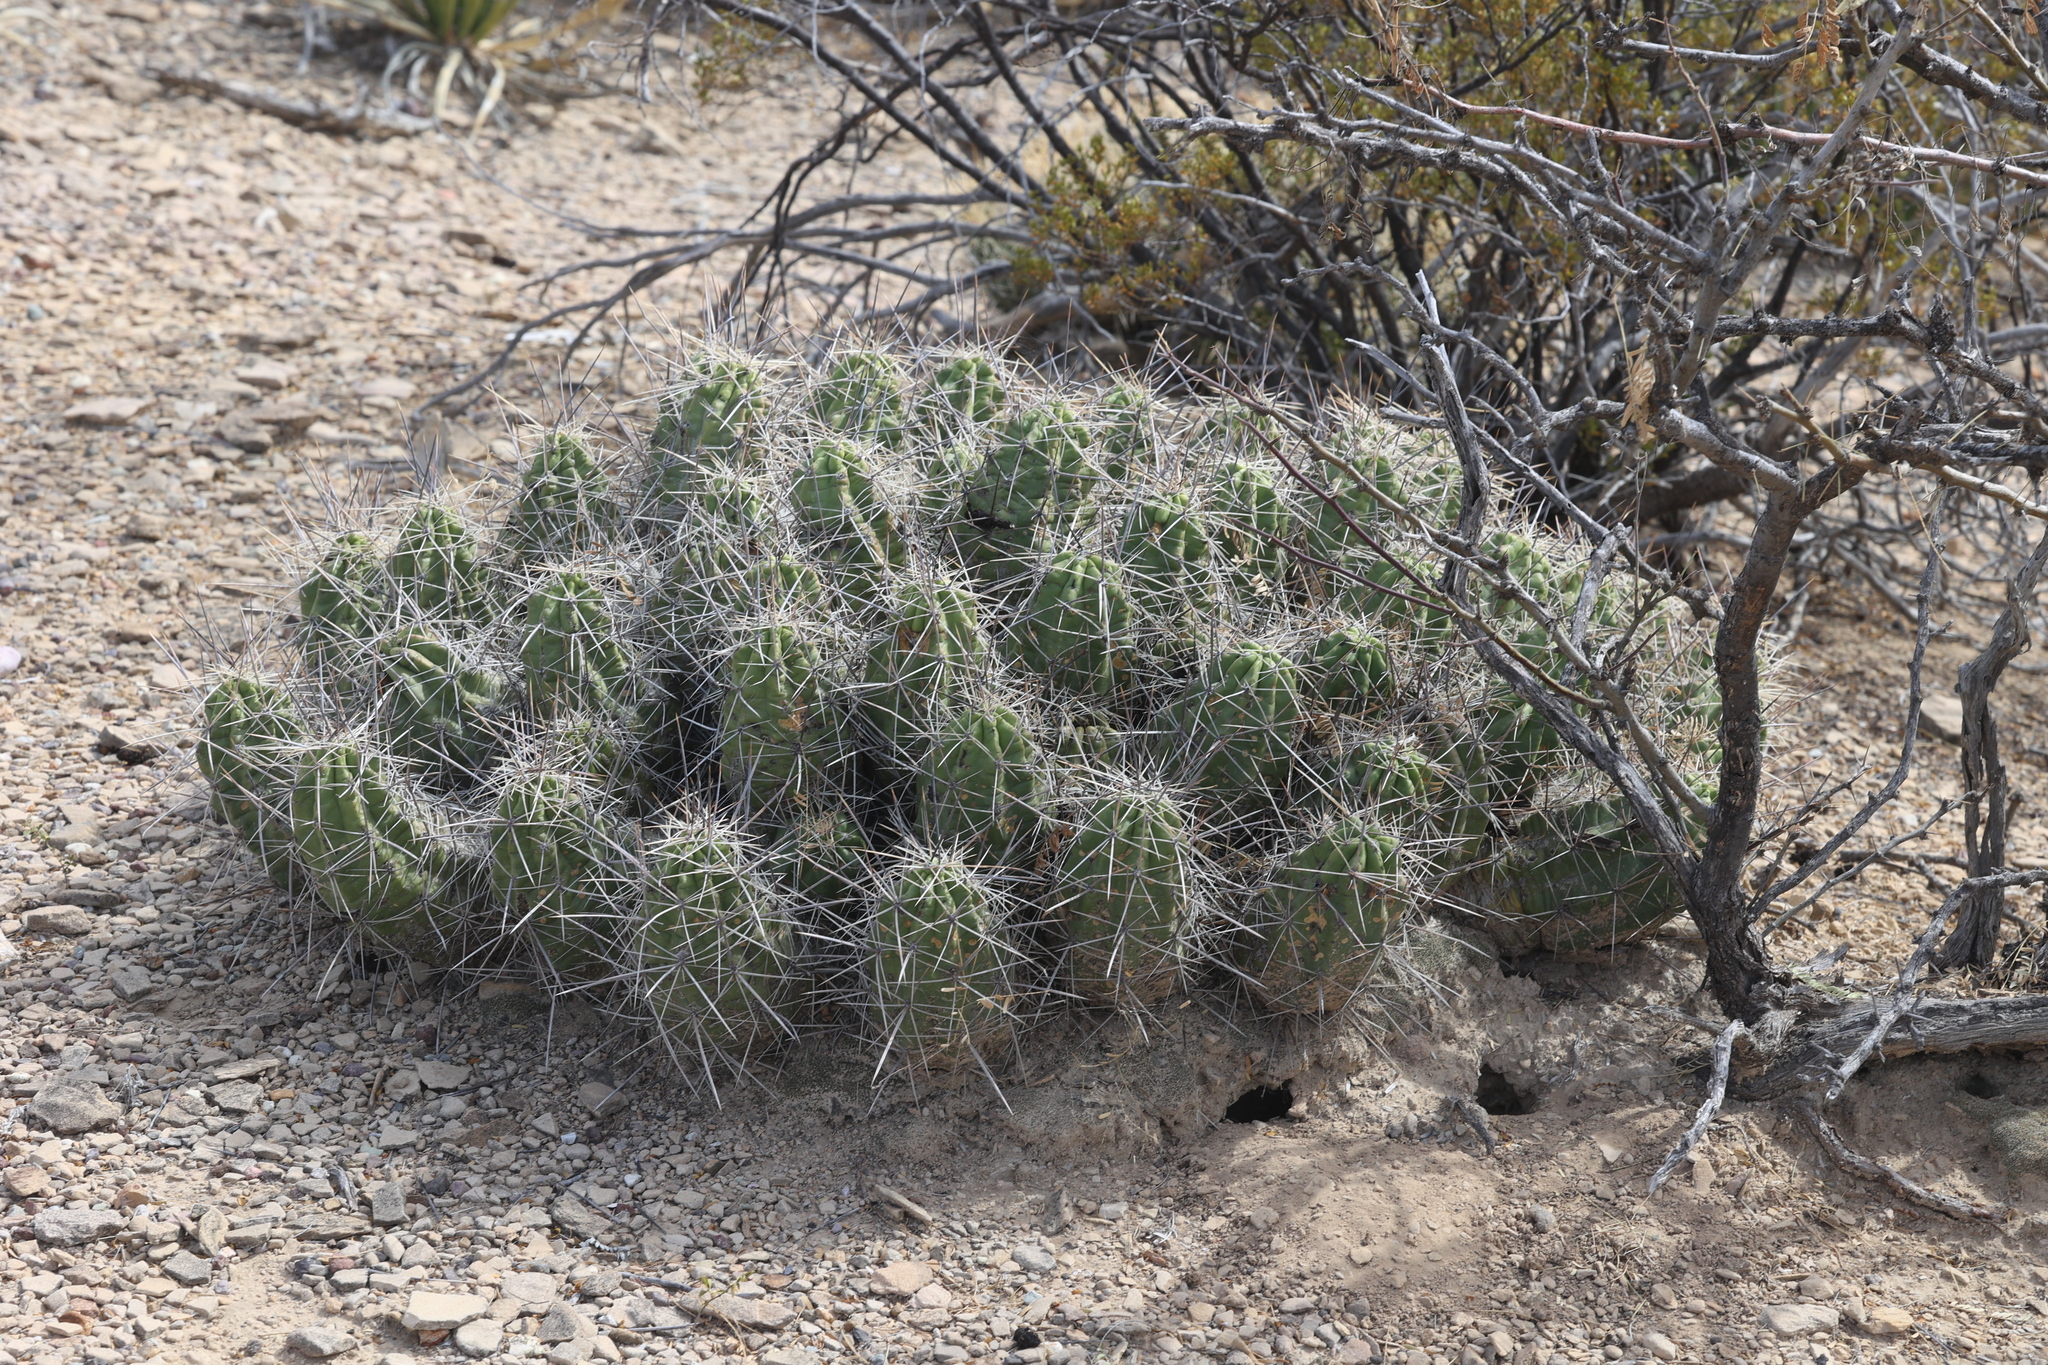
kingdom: Plantae
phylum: Tracheophyta
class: Magnoliopsida
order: Caryophyllales
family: Cactaceae
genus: Echinocereus
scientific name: Echinocereus enneacanthus
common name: Pitaya
